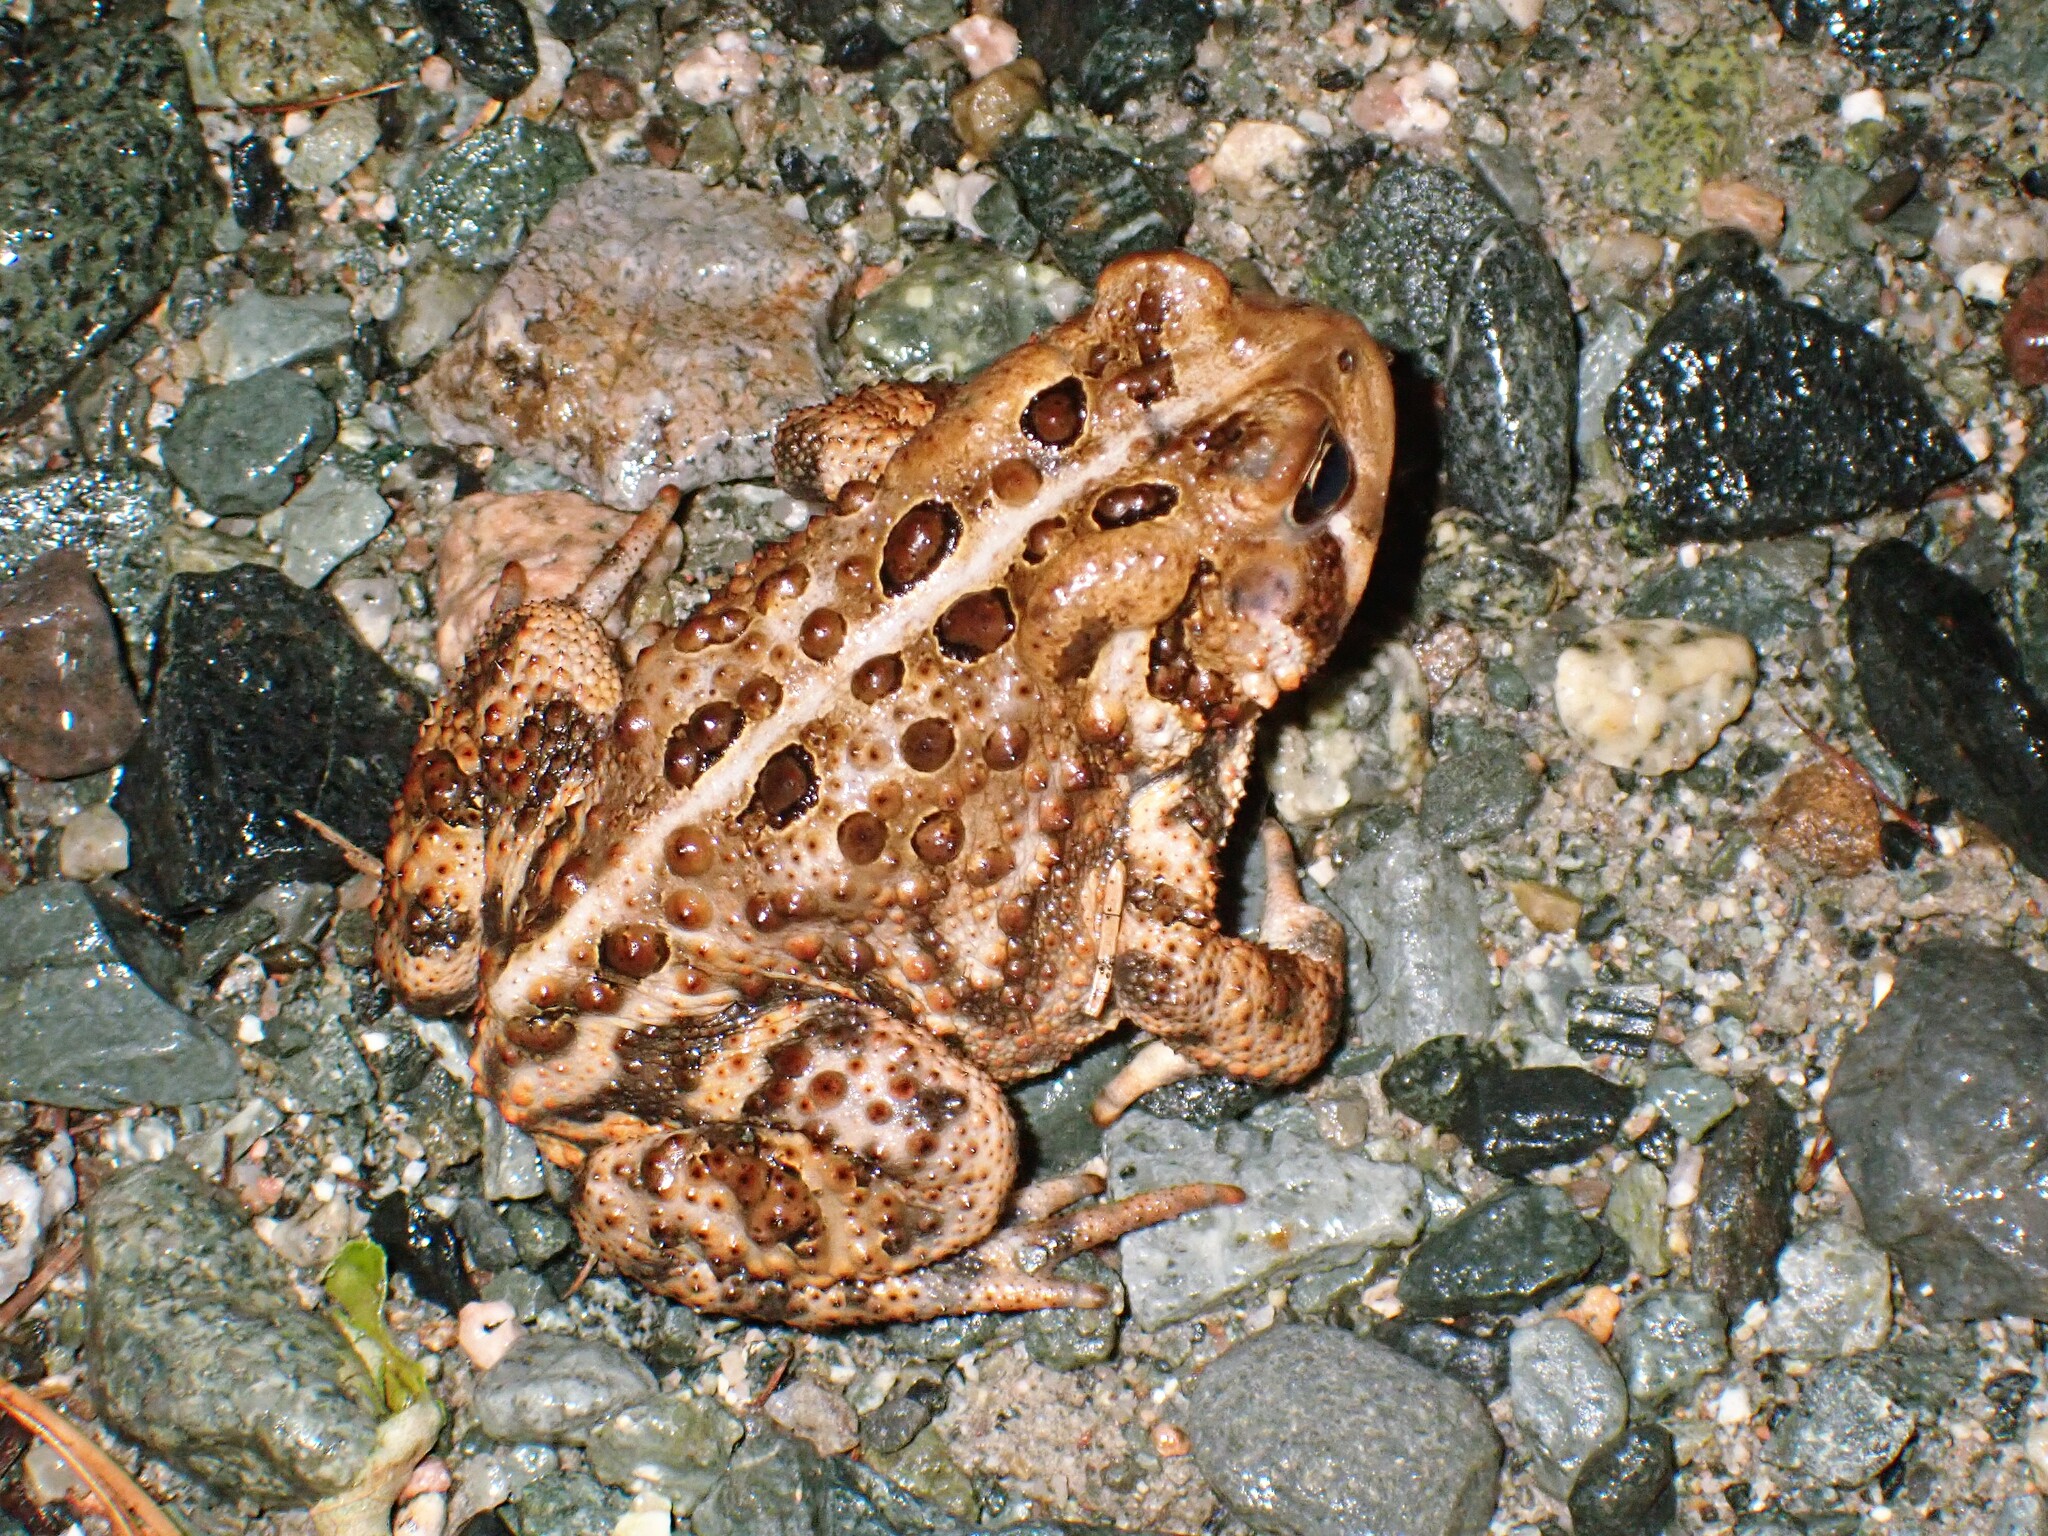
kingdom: Animalia
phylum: Chordata
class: Amphibia
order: Anura
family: Bufonidae
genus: Anaxyrus
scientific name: Anaxyrus americanus
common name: American toad
